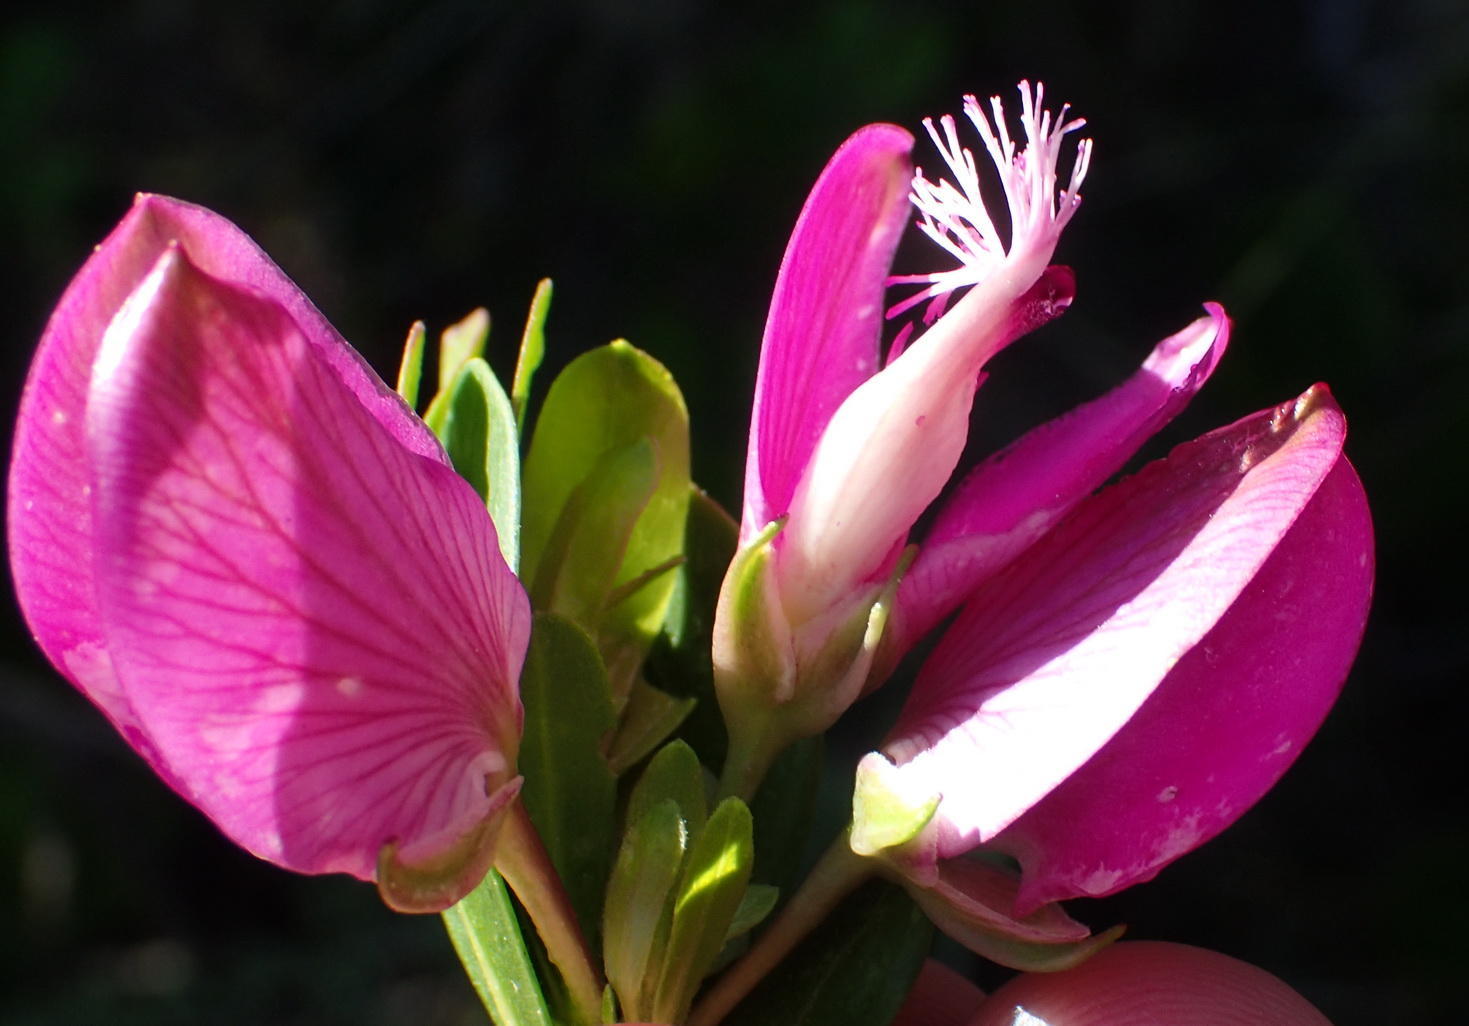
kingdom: Plantae
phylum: Tracheophyta
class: Magnoliopsida
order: Fabales
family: Polygalaceae
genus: Polygala
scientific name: Polygala myrtifolia
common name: Myrtle-leaf milkwort
